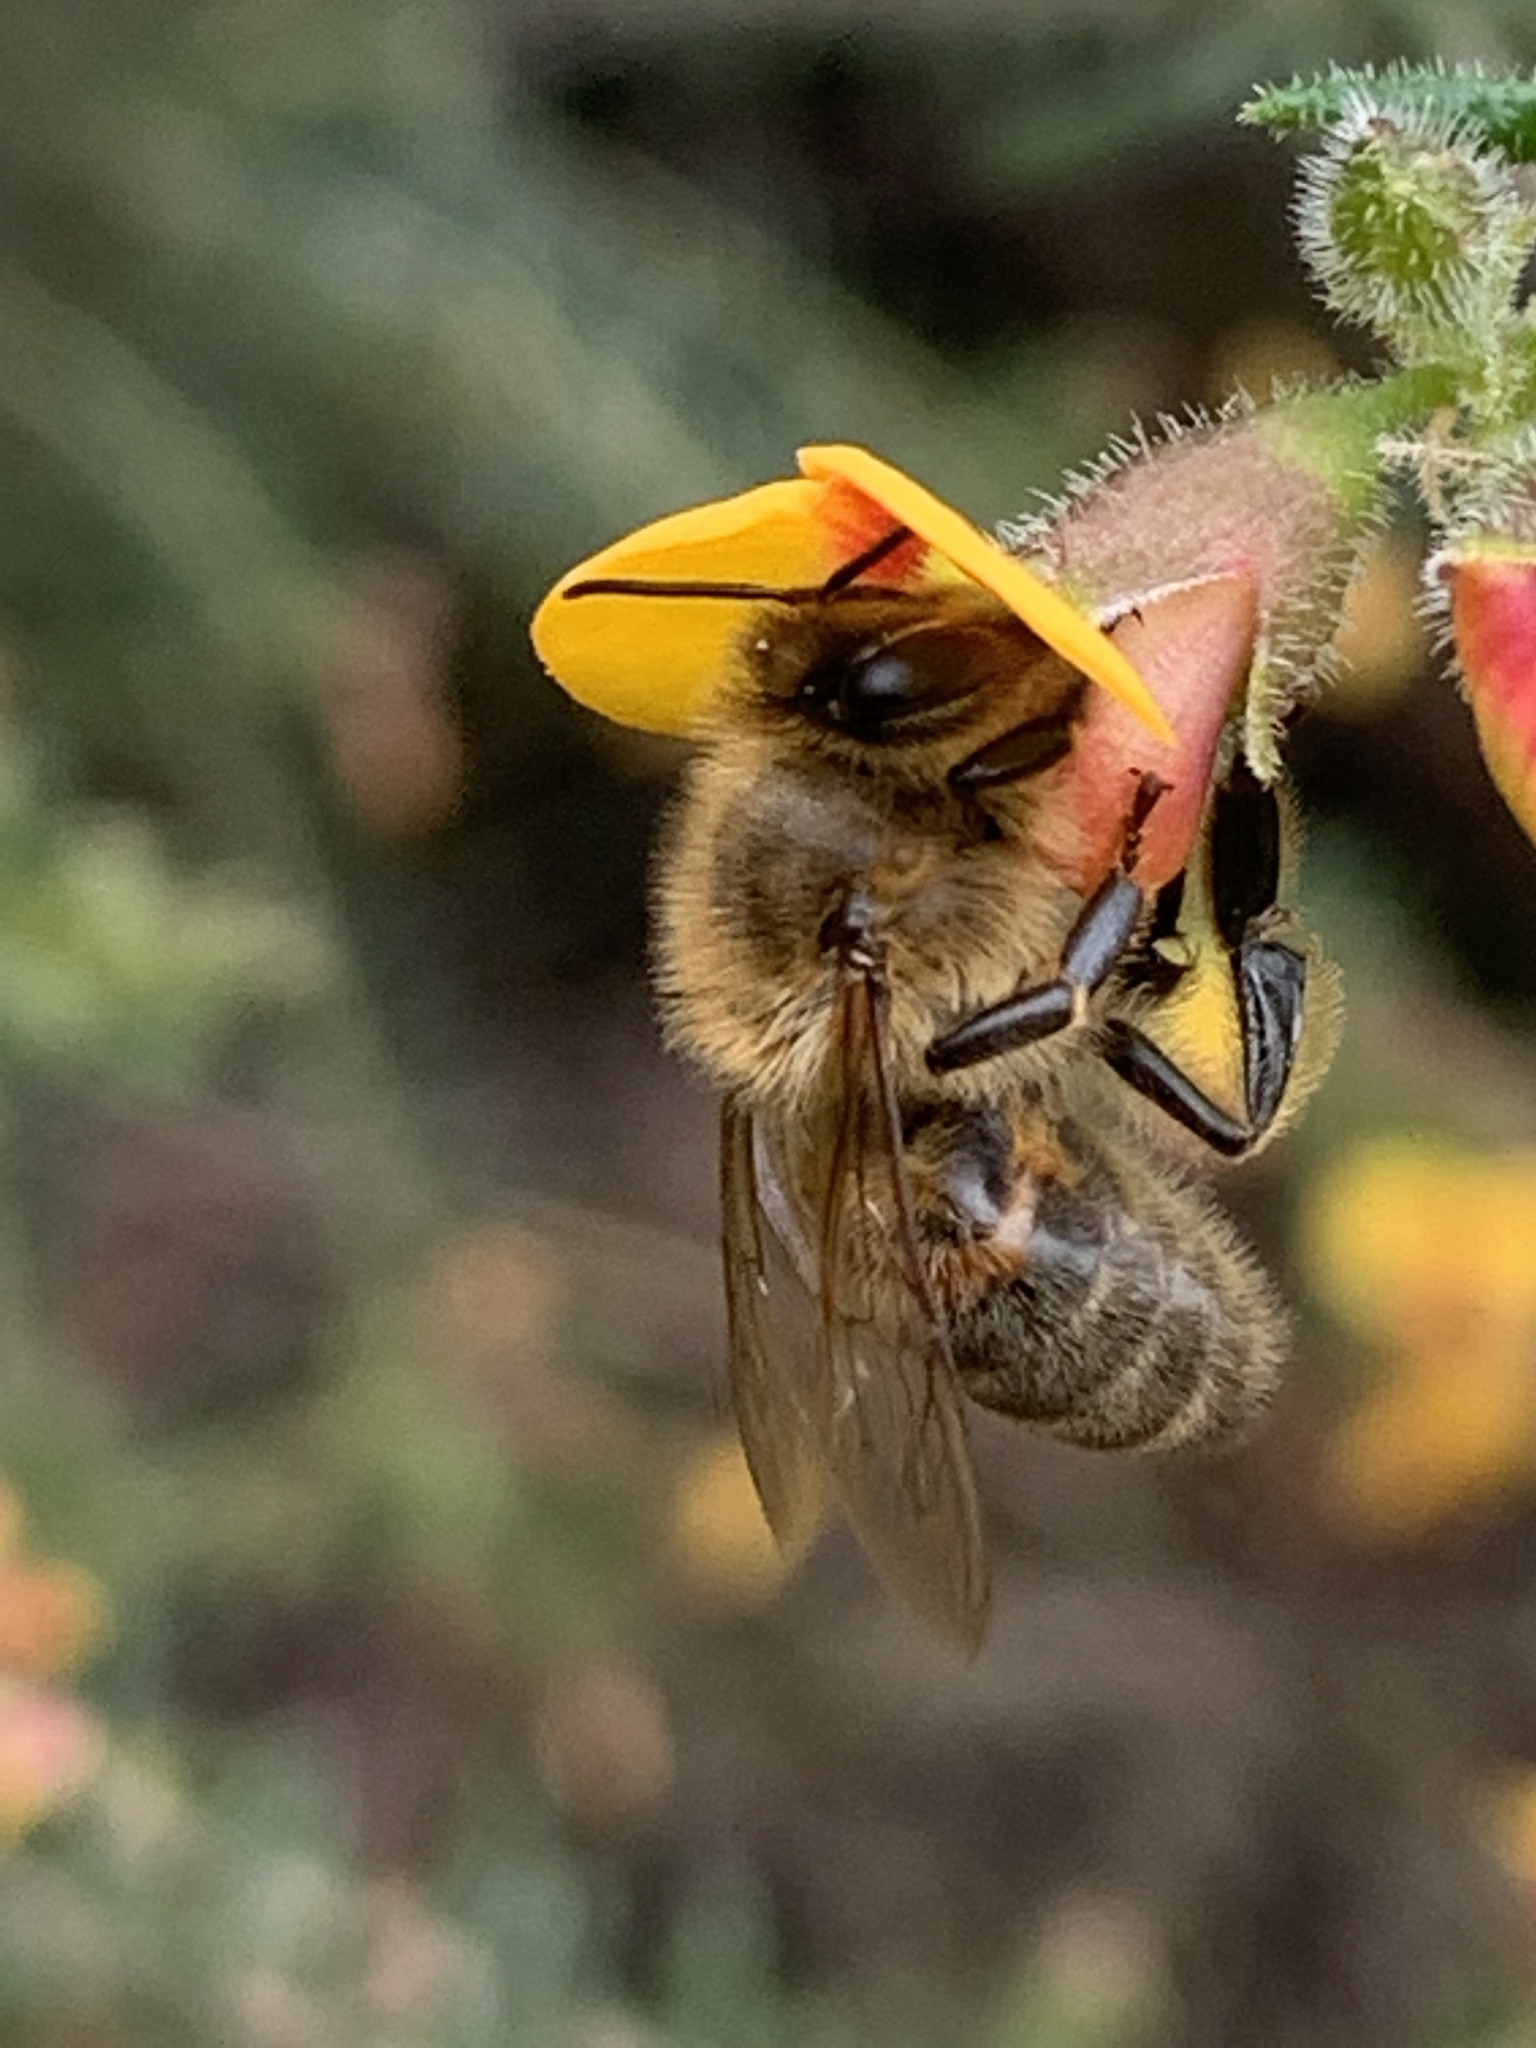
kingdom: Animalia
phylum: Arthropoda
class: Insecta
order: Hymenoptera
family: Apidae
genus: Apis
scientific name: Apis mellifera
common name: Honey bee
